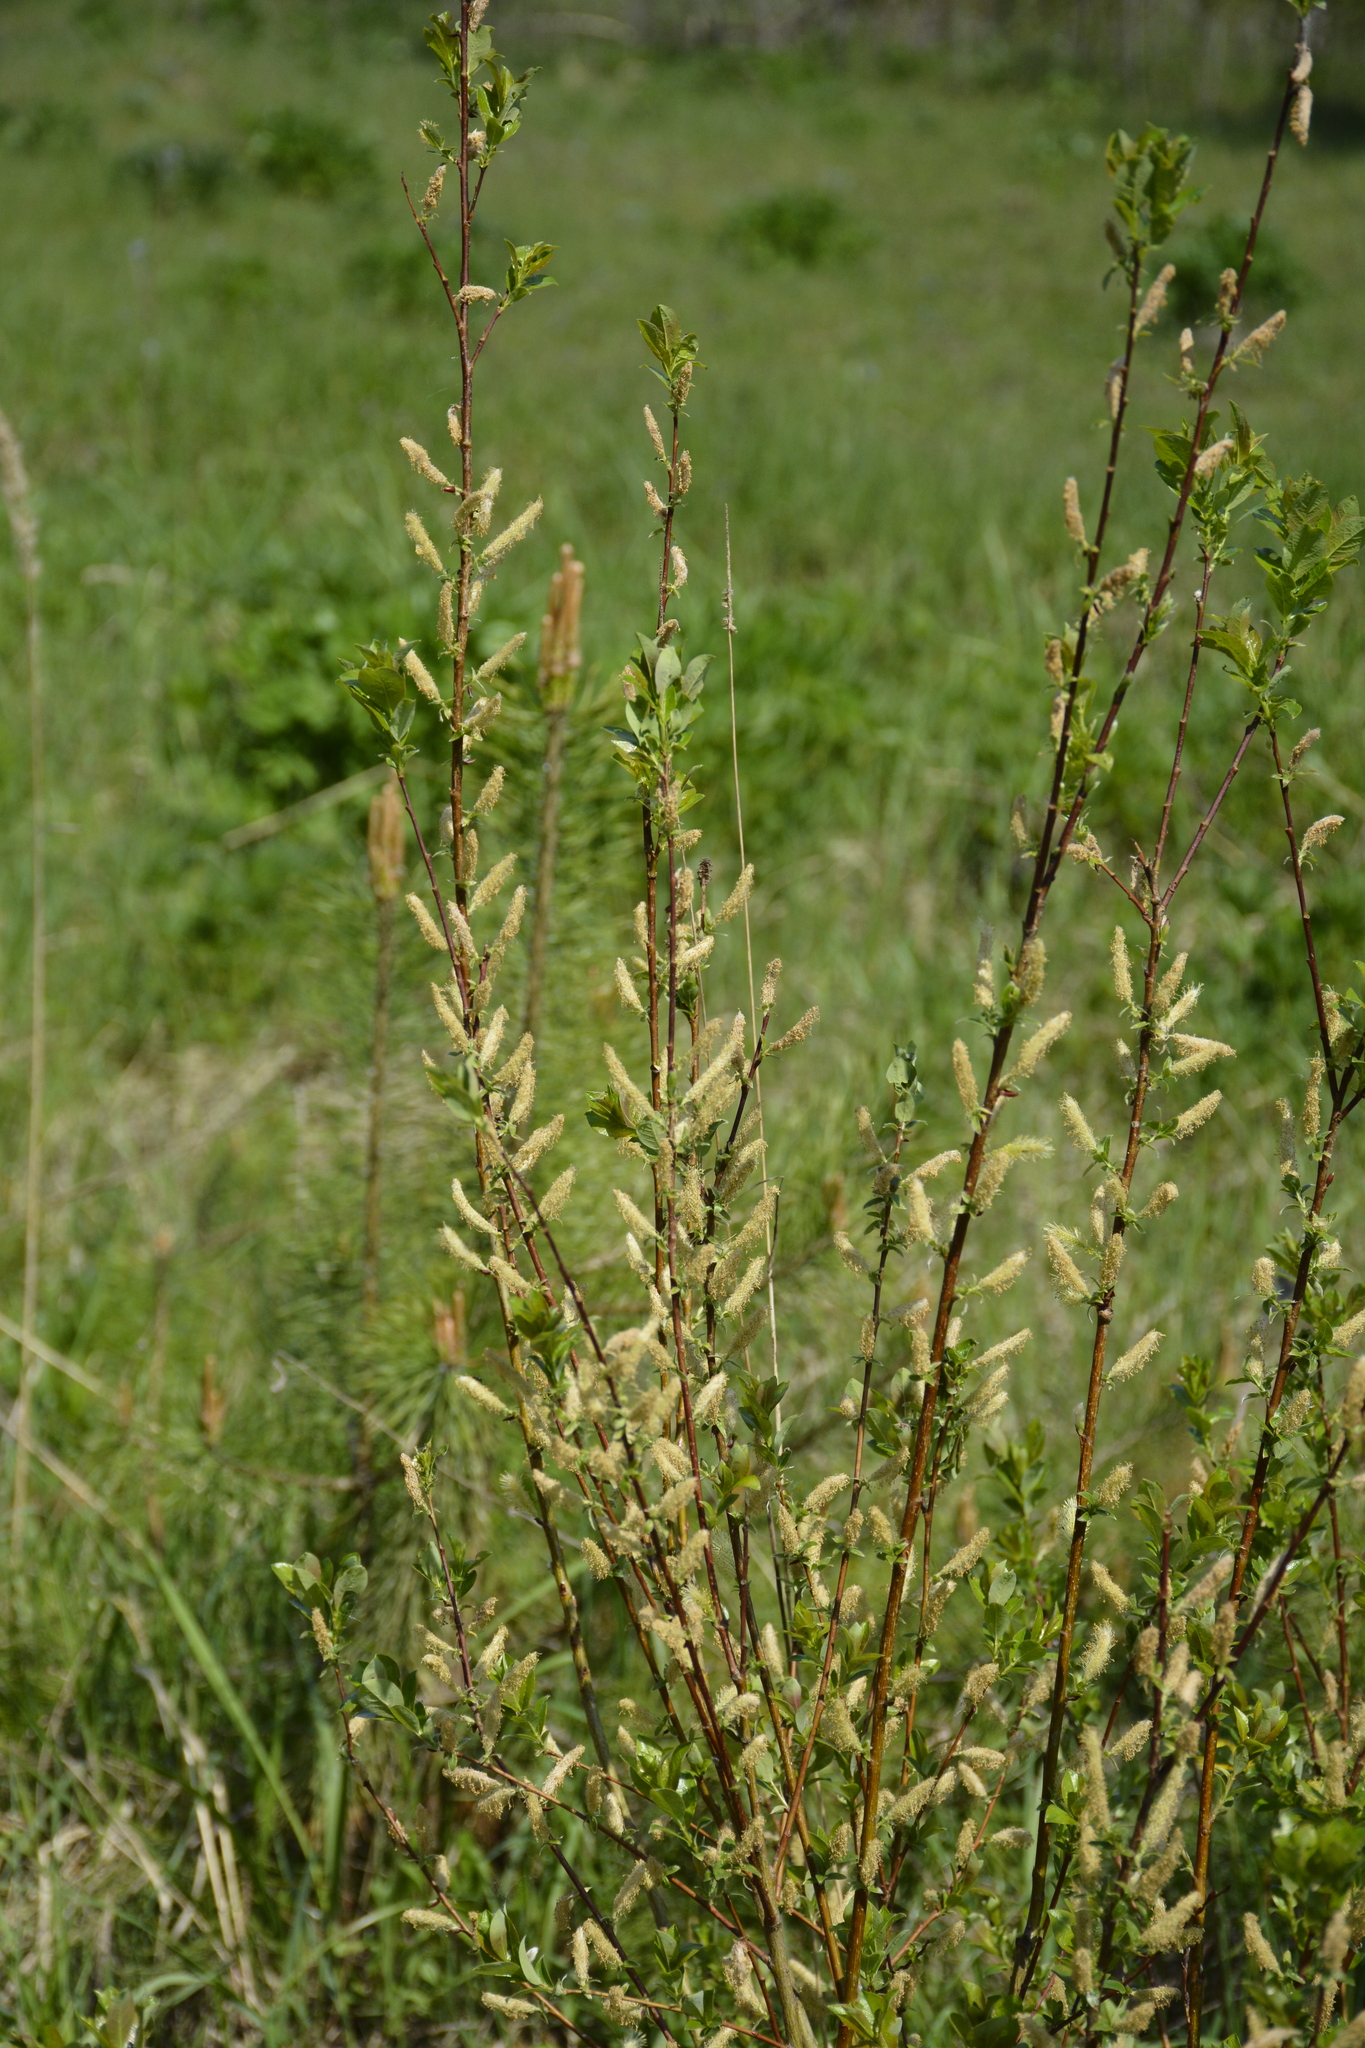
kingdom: Plantae
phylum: Tracheophyta
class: Magnoliopsida
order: Malpighiales
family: Salicaceae
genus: Salix
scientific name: Salix triandra
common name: Almond willow
